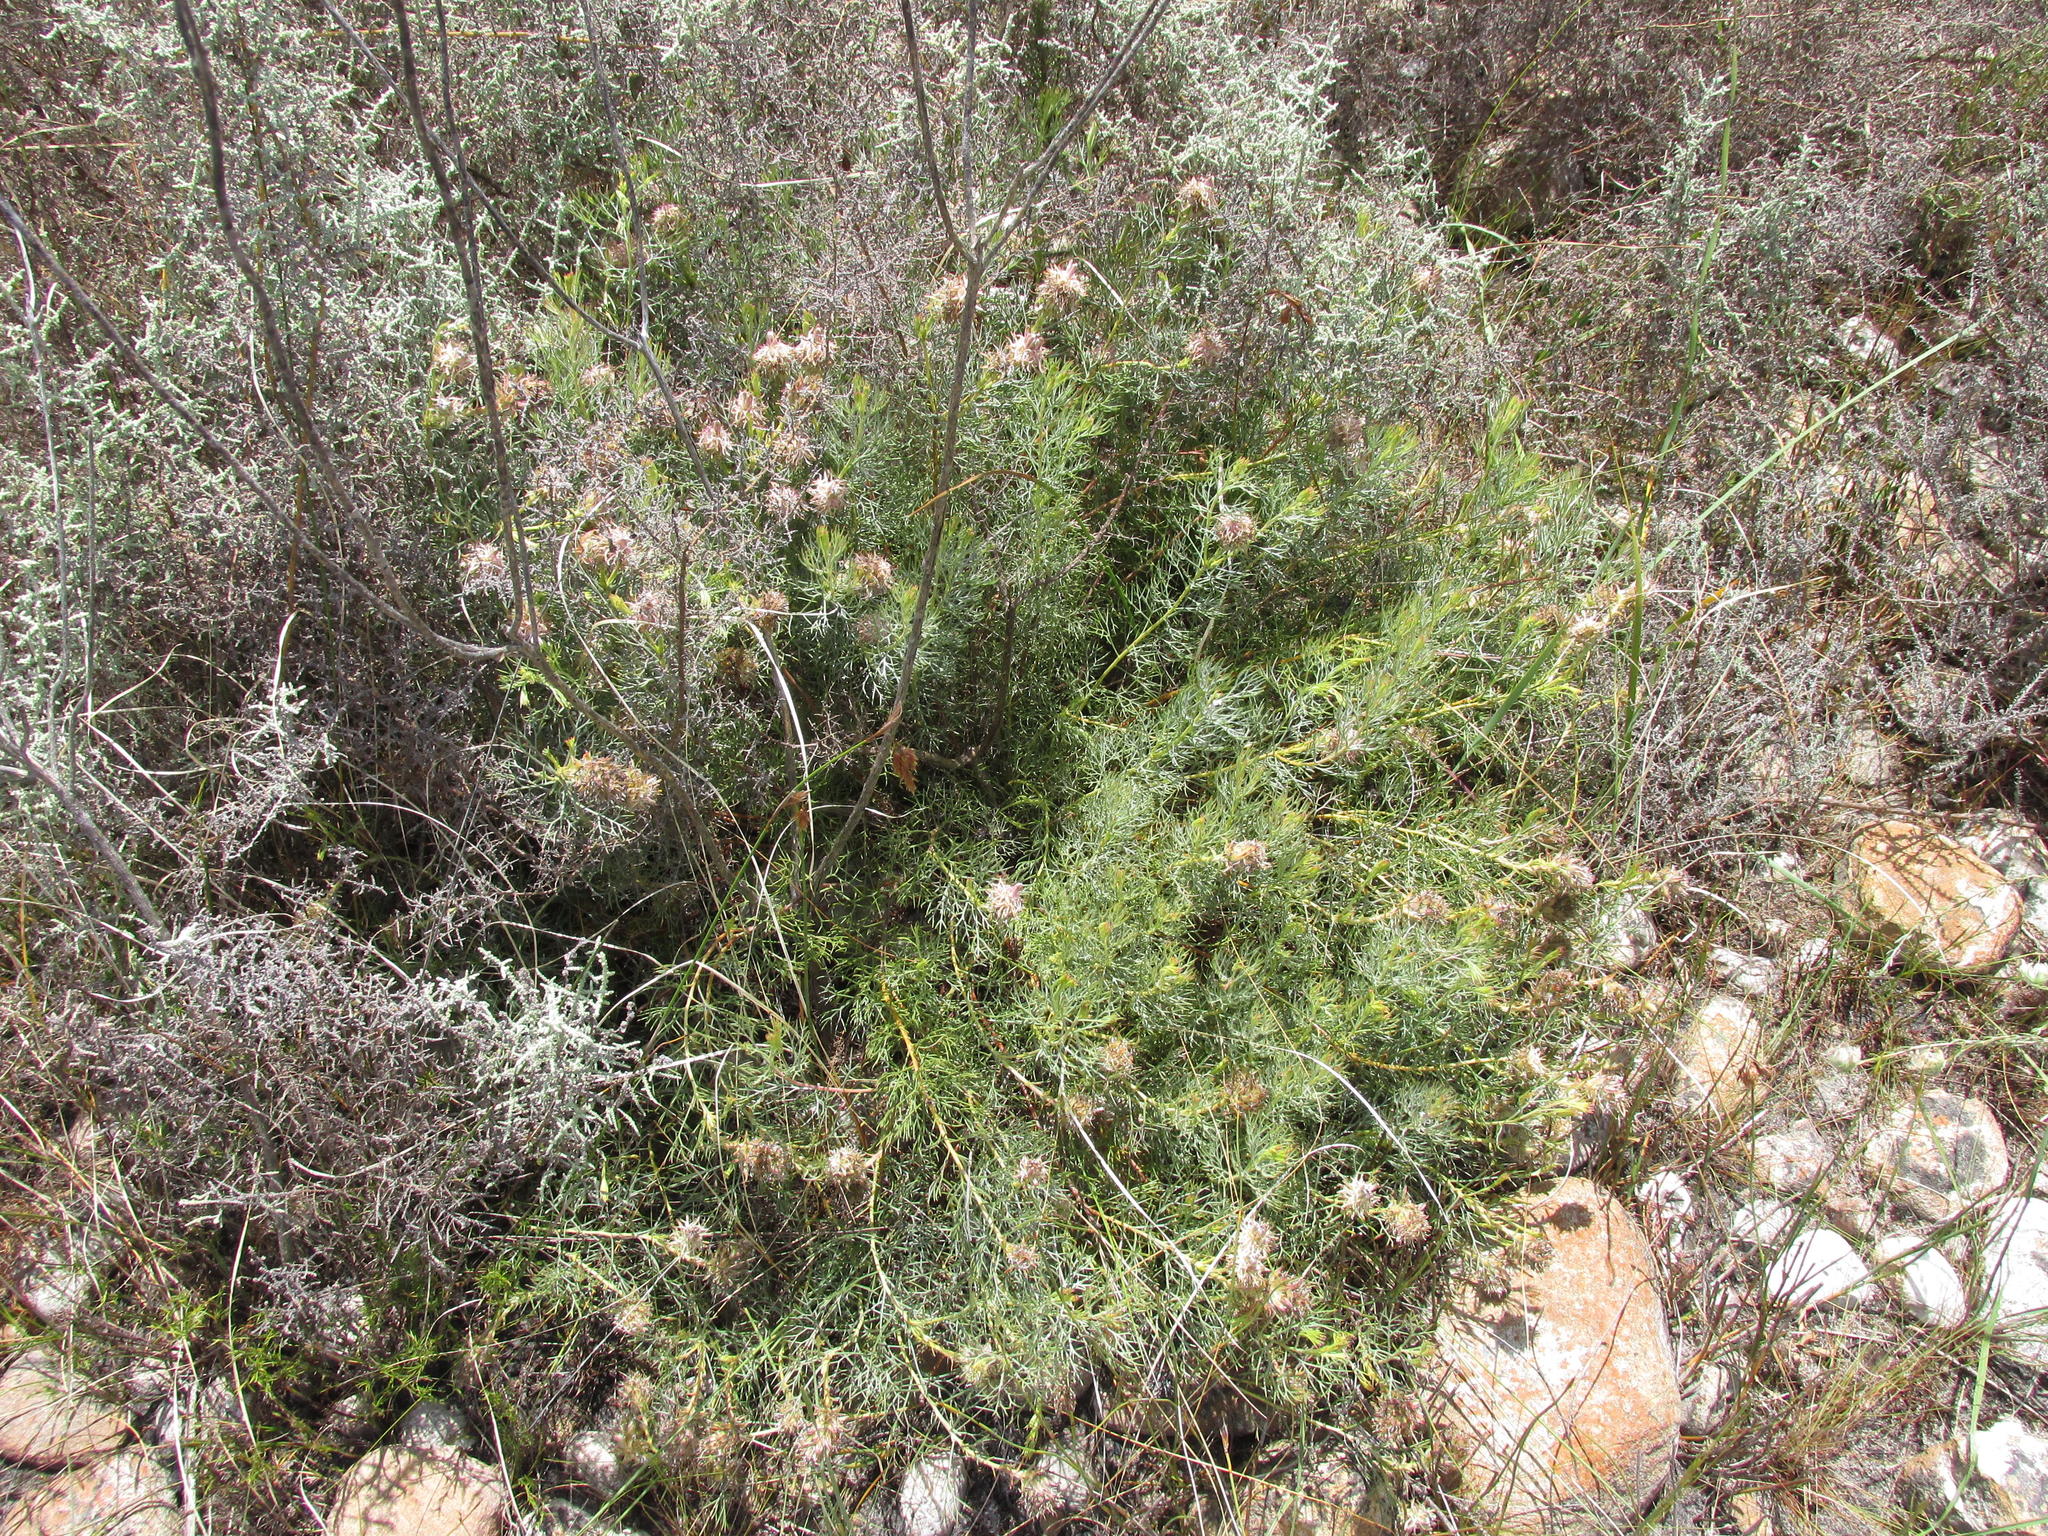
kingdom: Plantae
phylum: Tracheophyta
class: Magnoliopsida
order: Proteales
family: Proteaceae
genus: Serruria
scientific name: Serruria
